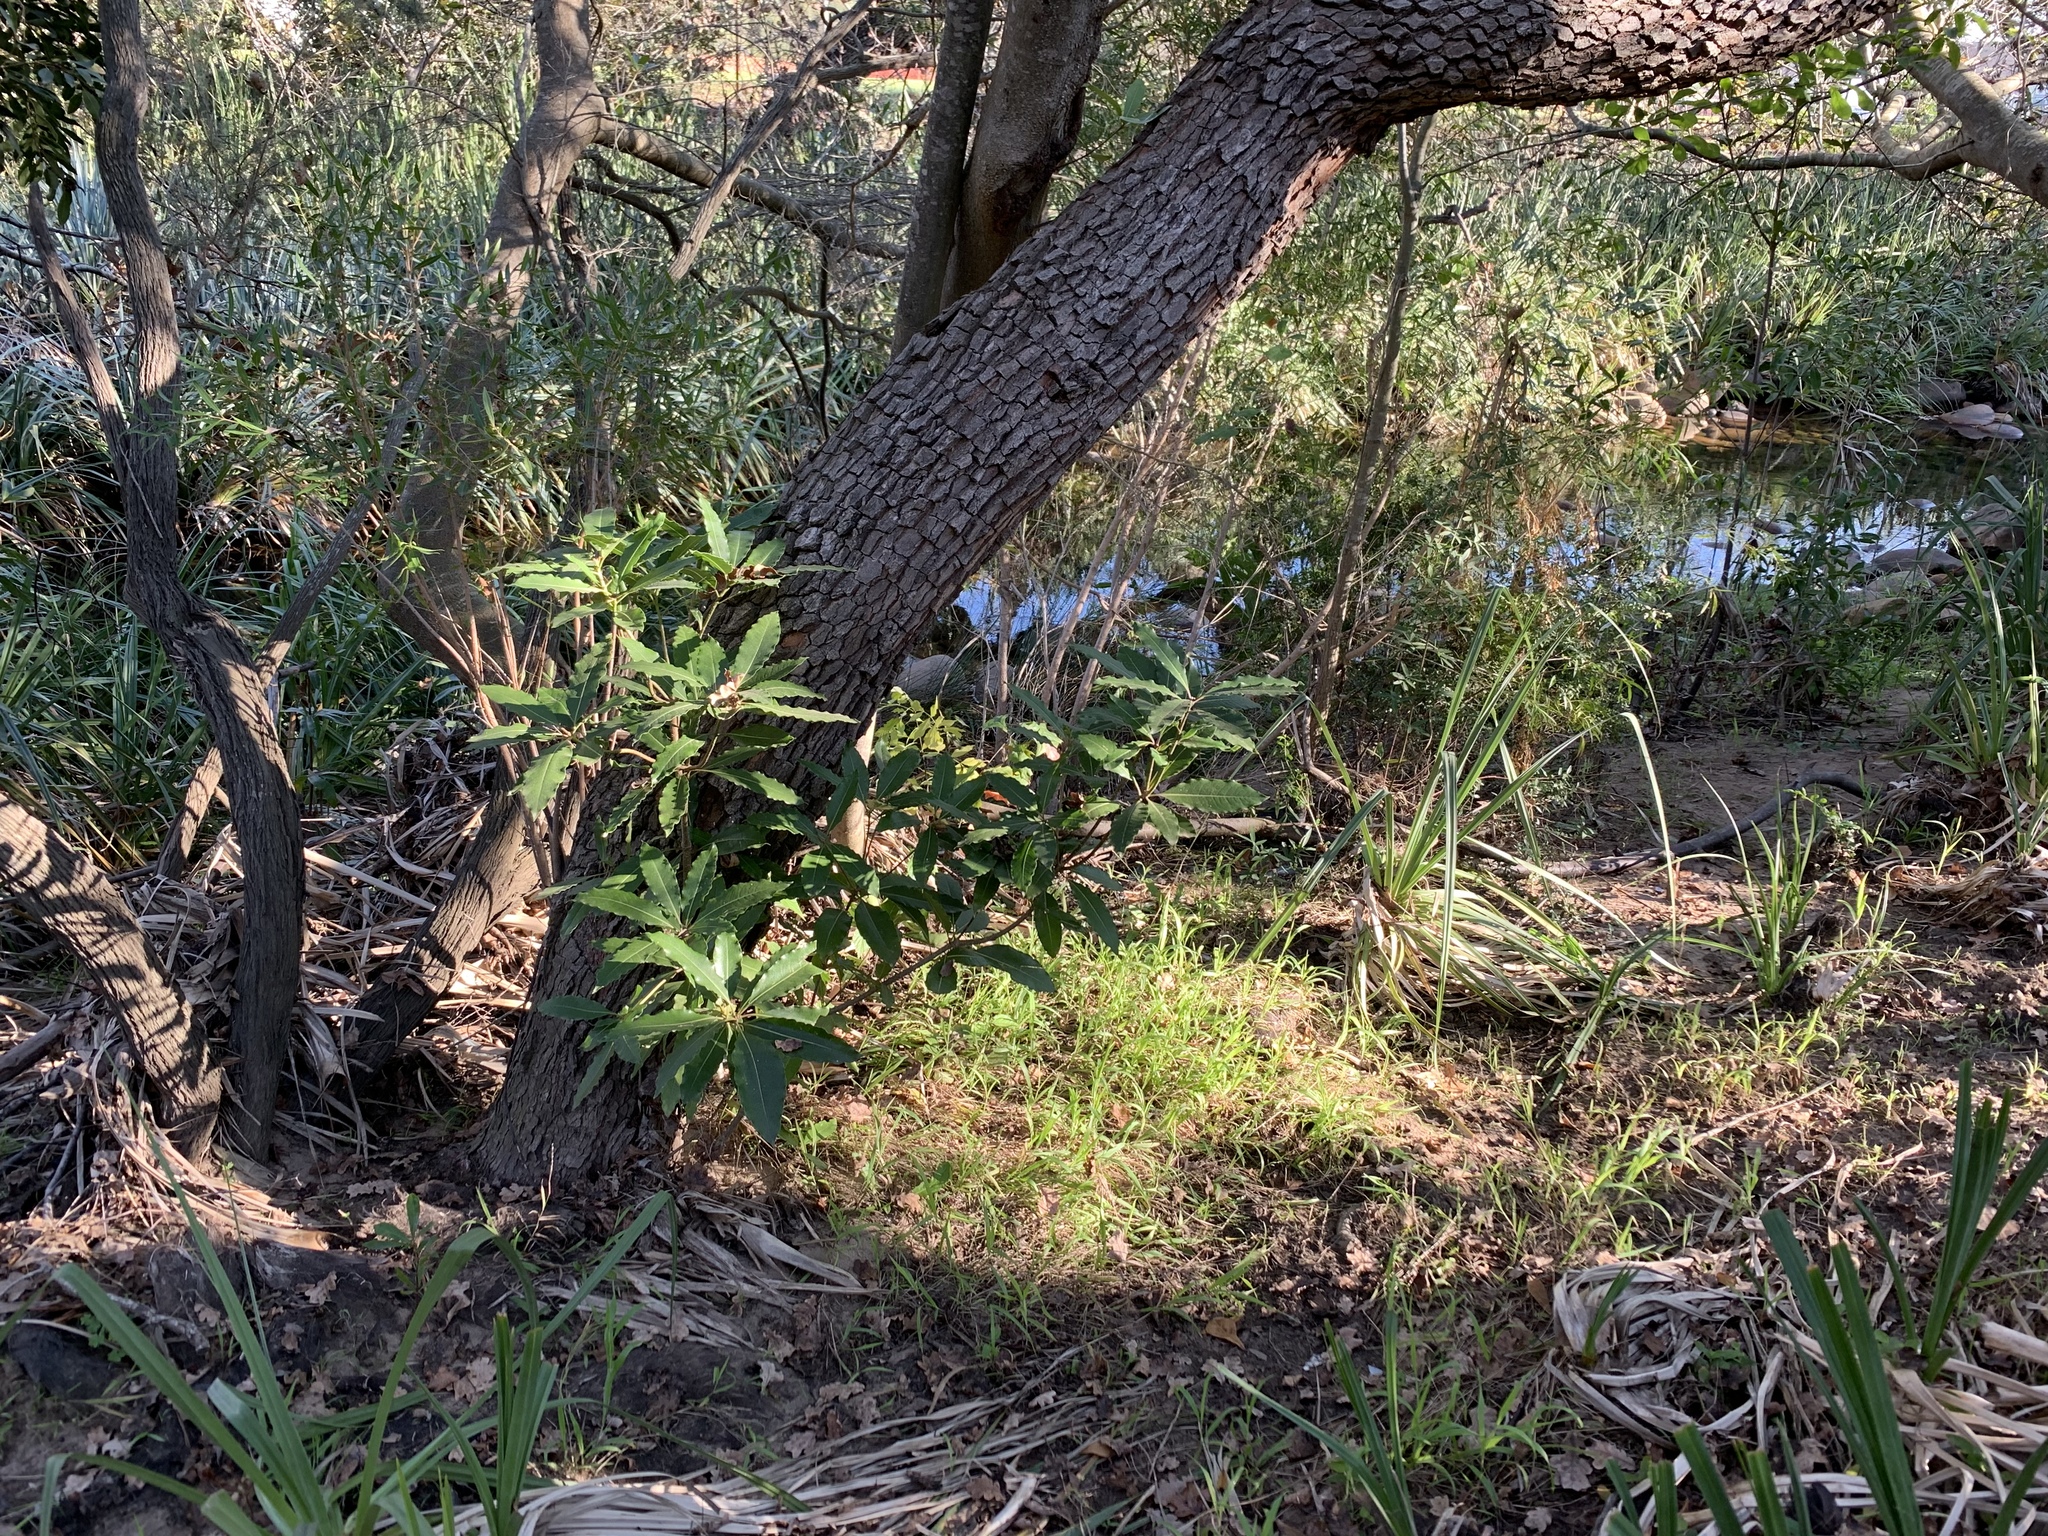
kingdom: Plantae
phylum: Tracheophyta
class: Magnoliopsida
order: Apiales
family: Pittosporaceae
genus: Pittosporum
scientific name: Pittosporum undulatum
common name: Australian cheesewood
